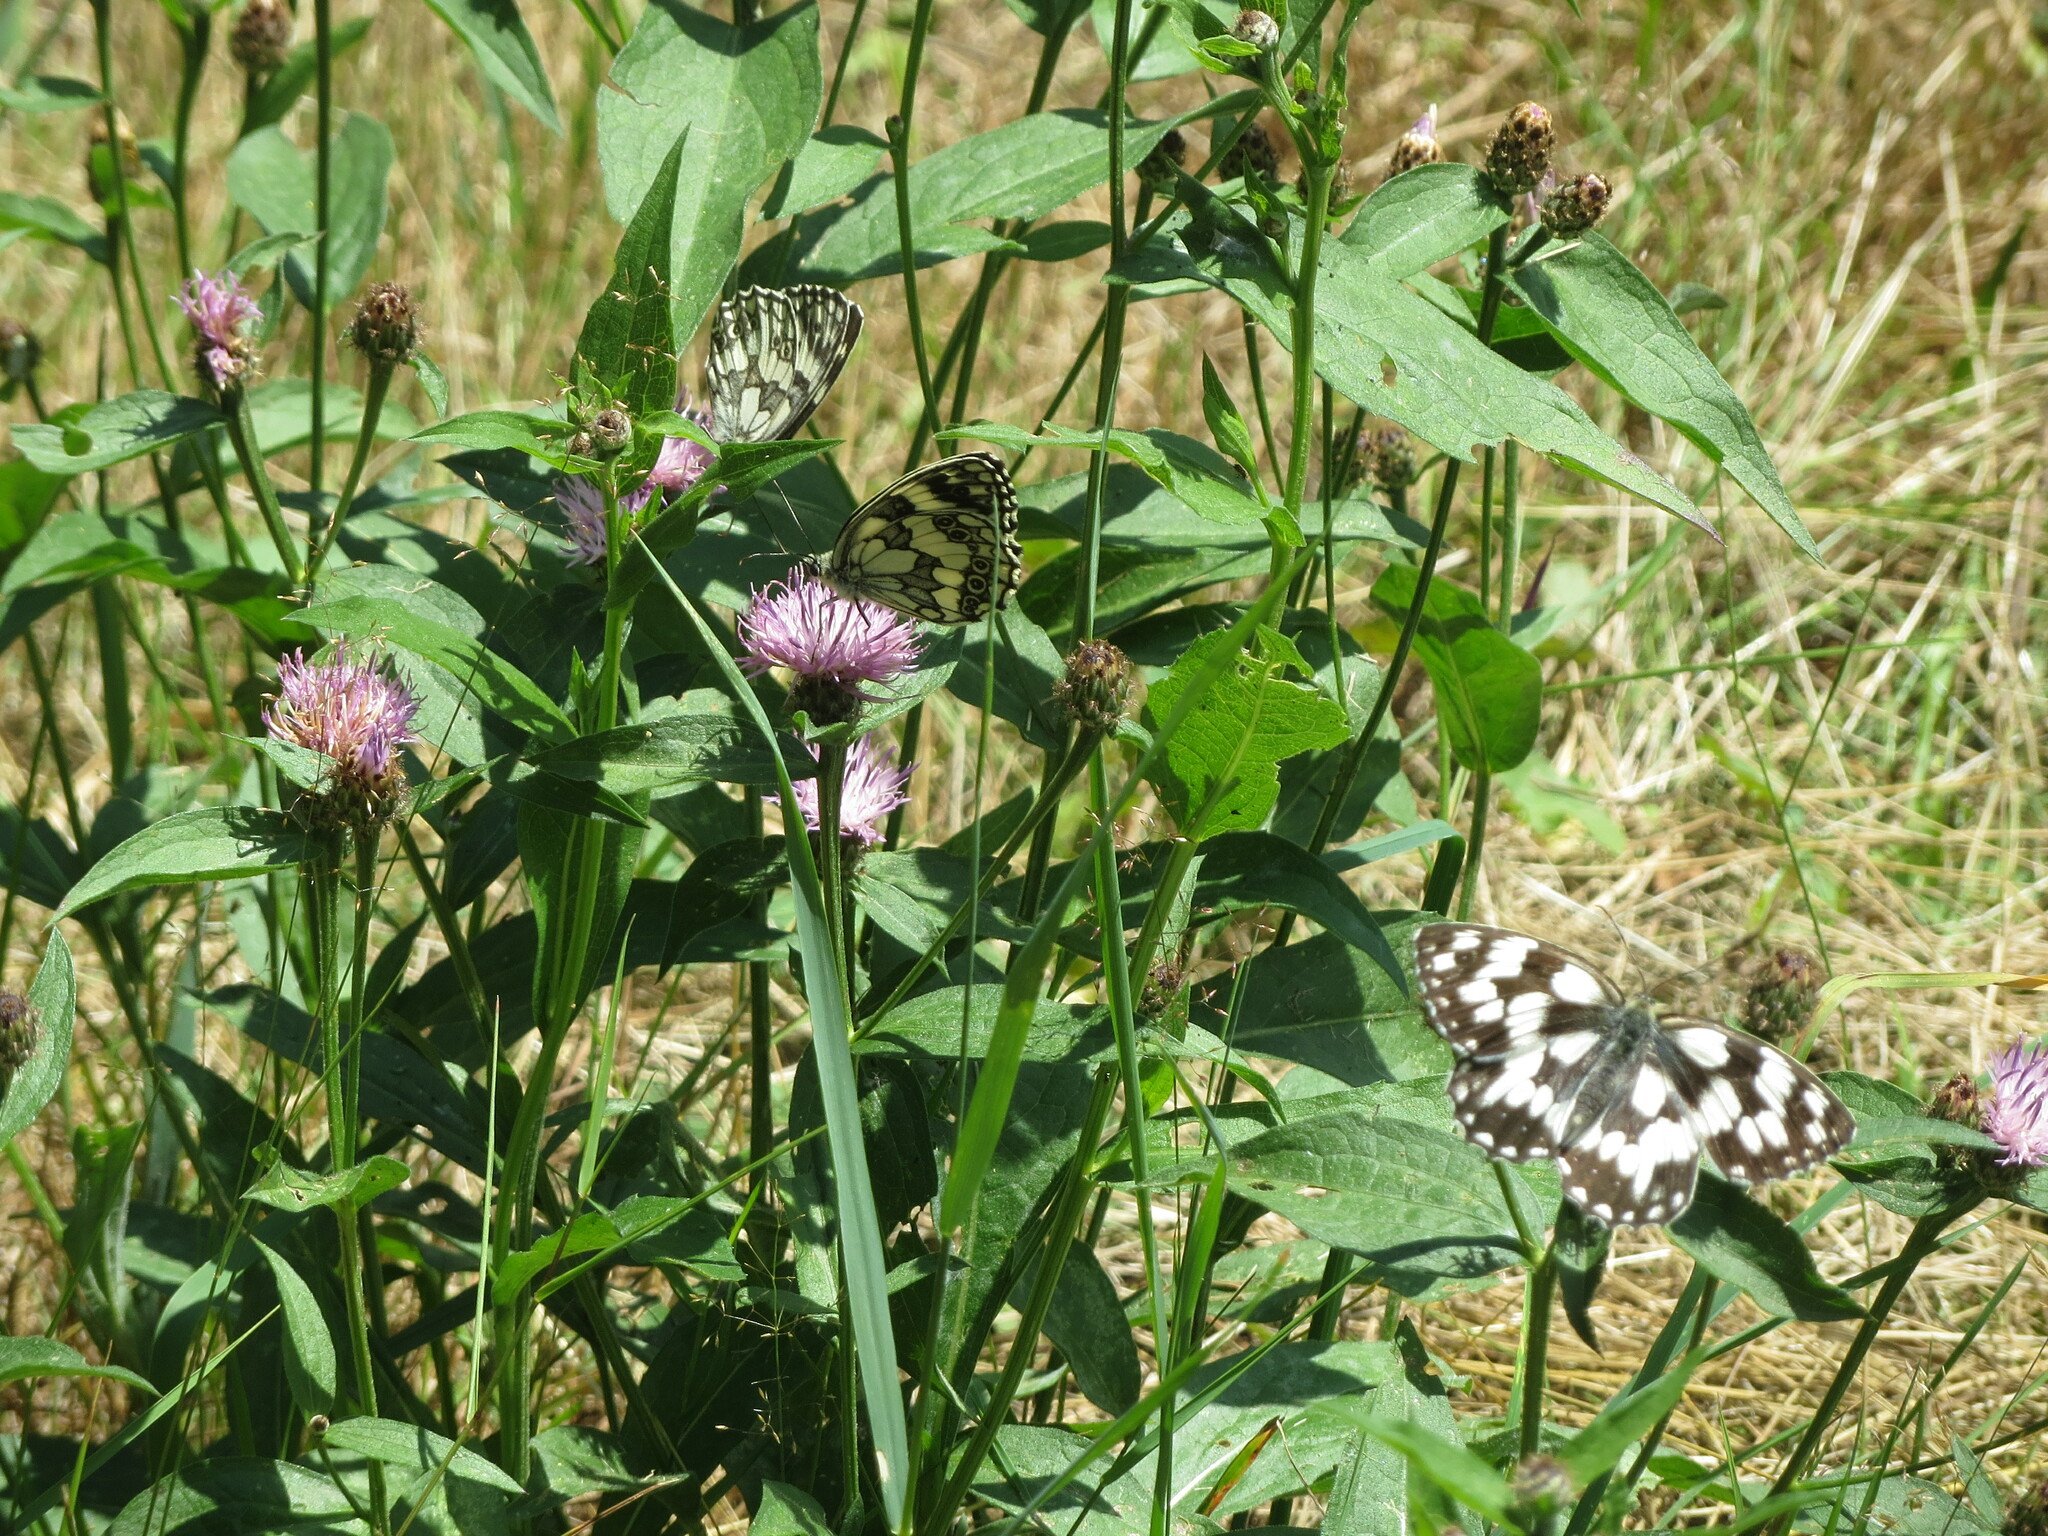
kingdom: Animalia
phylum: Arthropoda
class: Insecta
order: Lepidoptera
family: Nymphalidae
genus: Melanargia
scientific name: Melanargia galathea
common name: Marbled white
